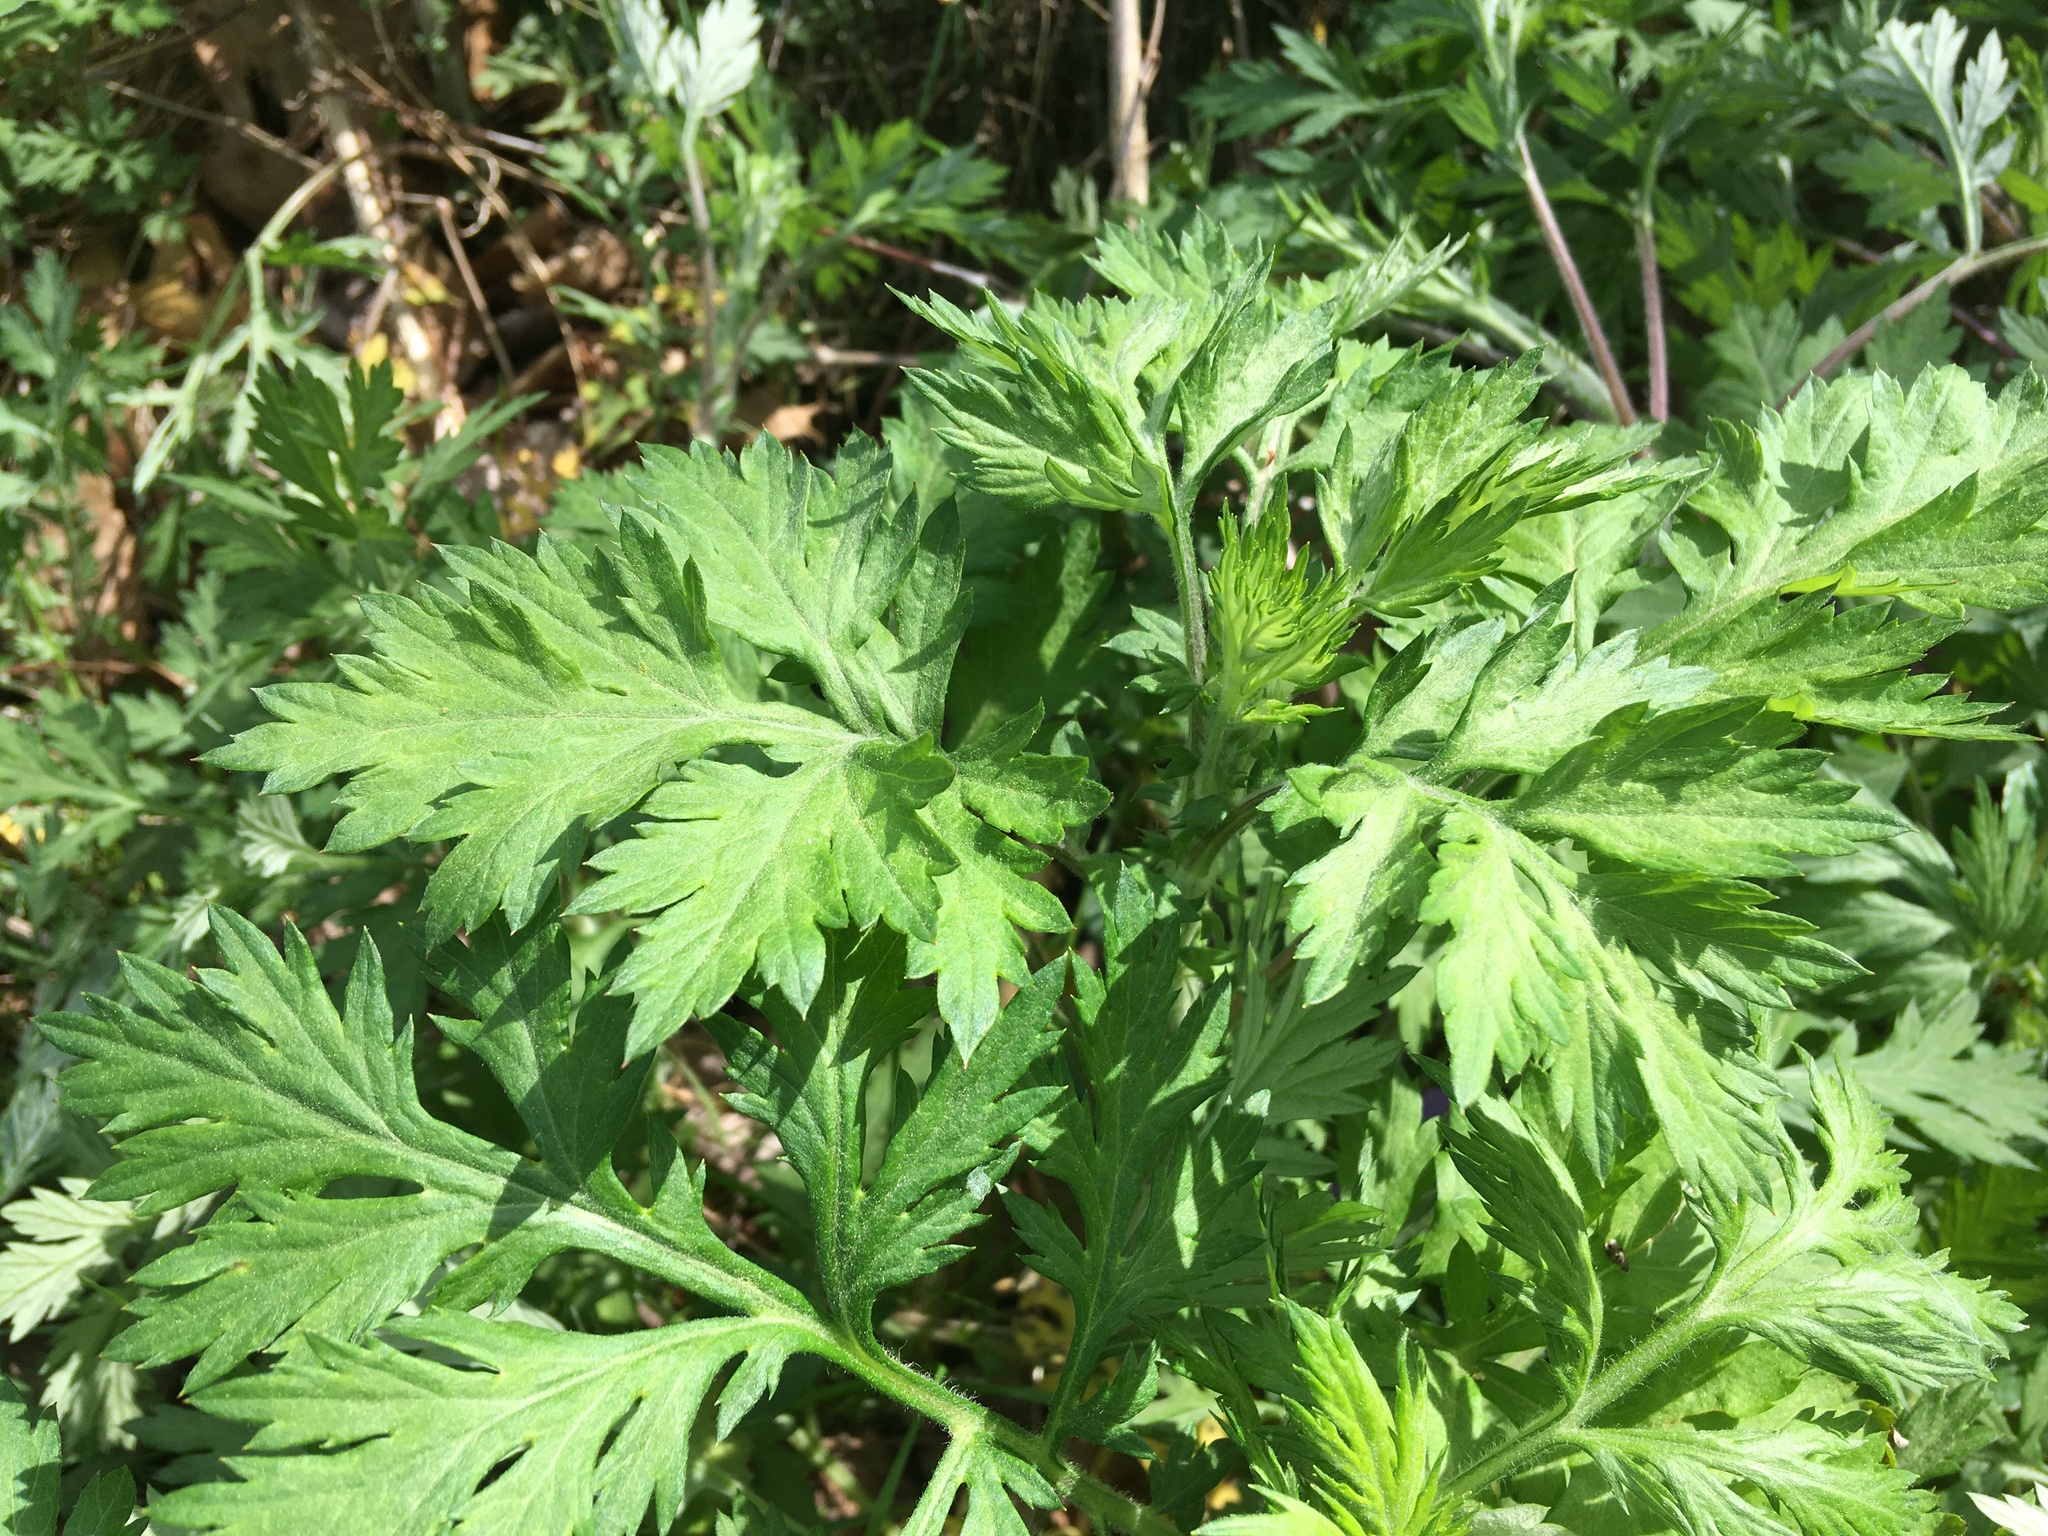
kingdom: Plantae
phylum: Tracheophyta
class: Magnoliopsida
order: Asterales
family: Asteraceae
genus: Artemisia
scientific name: Artemisia vulgaris
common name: Mugwort
